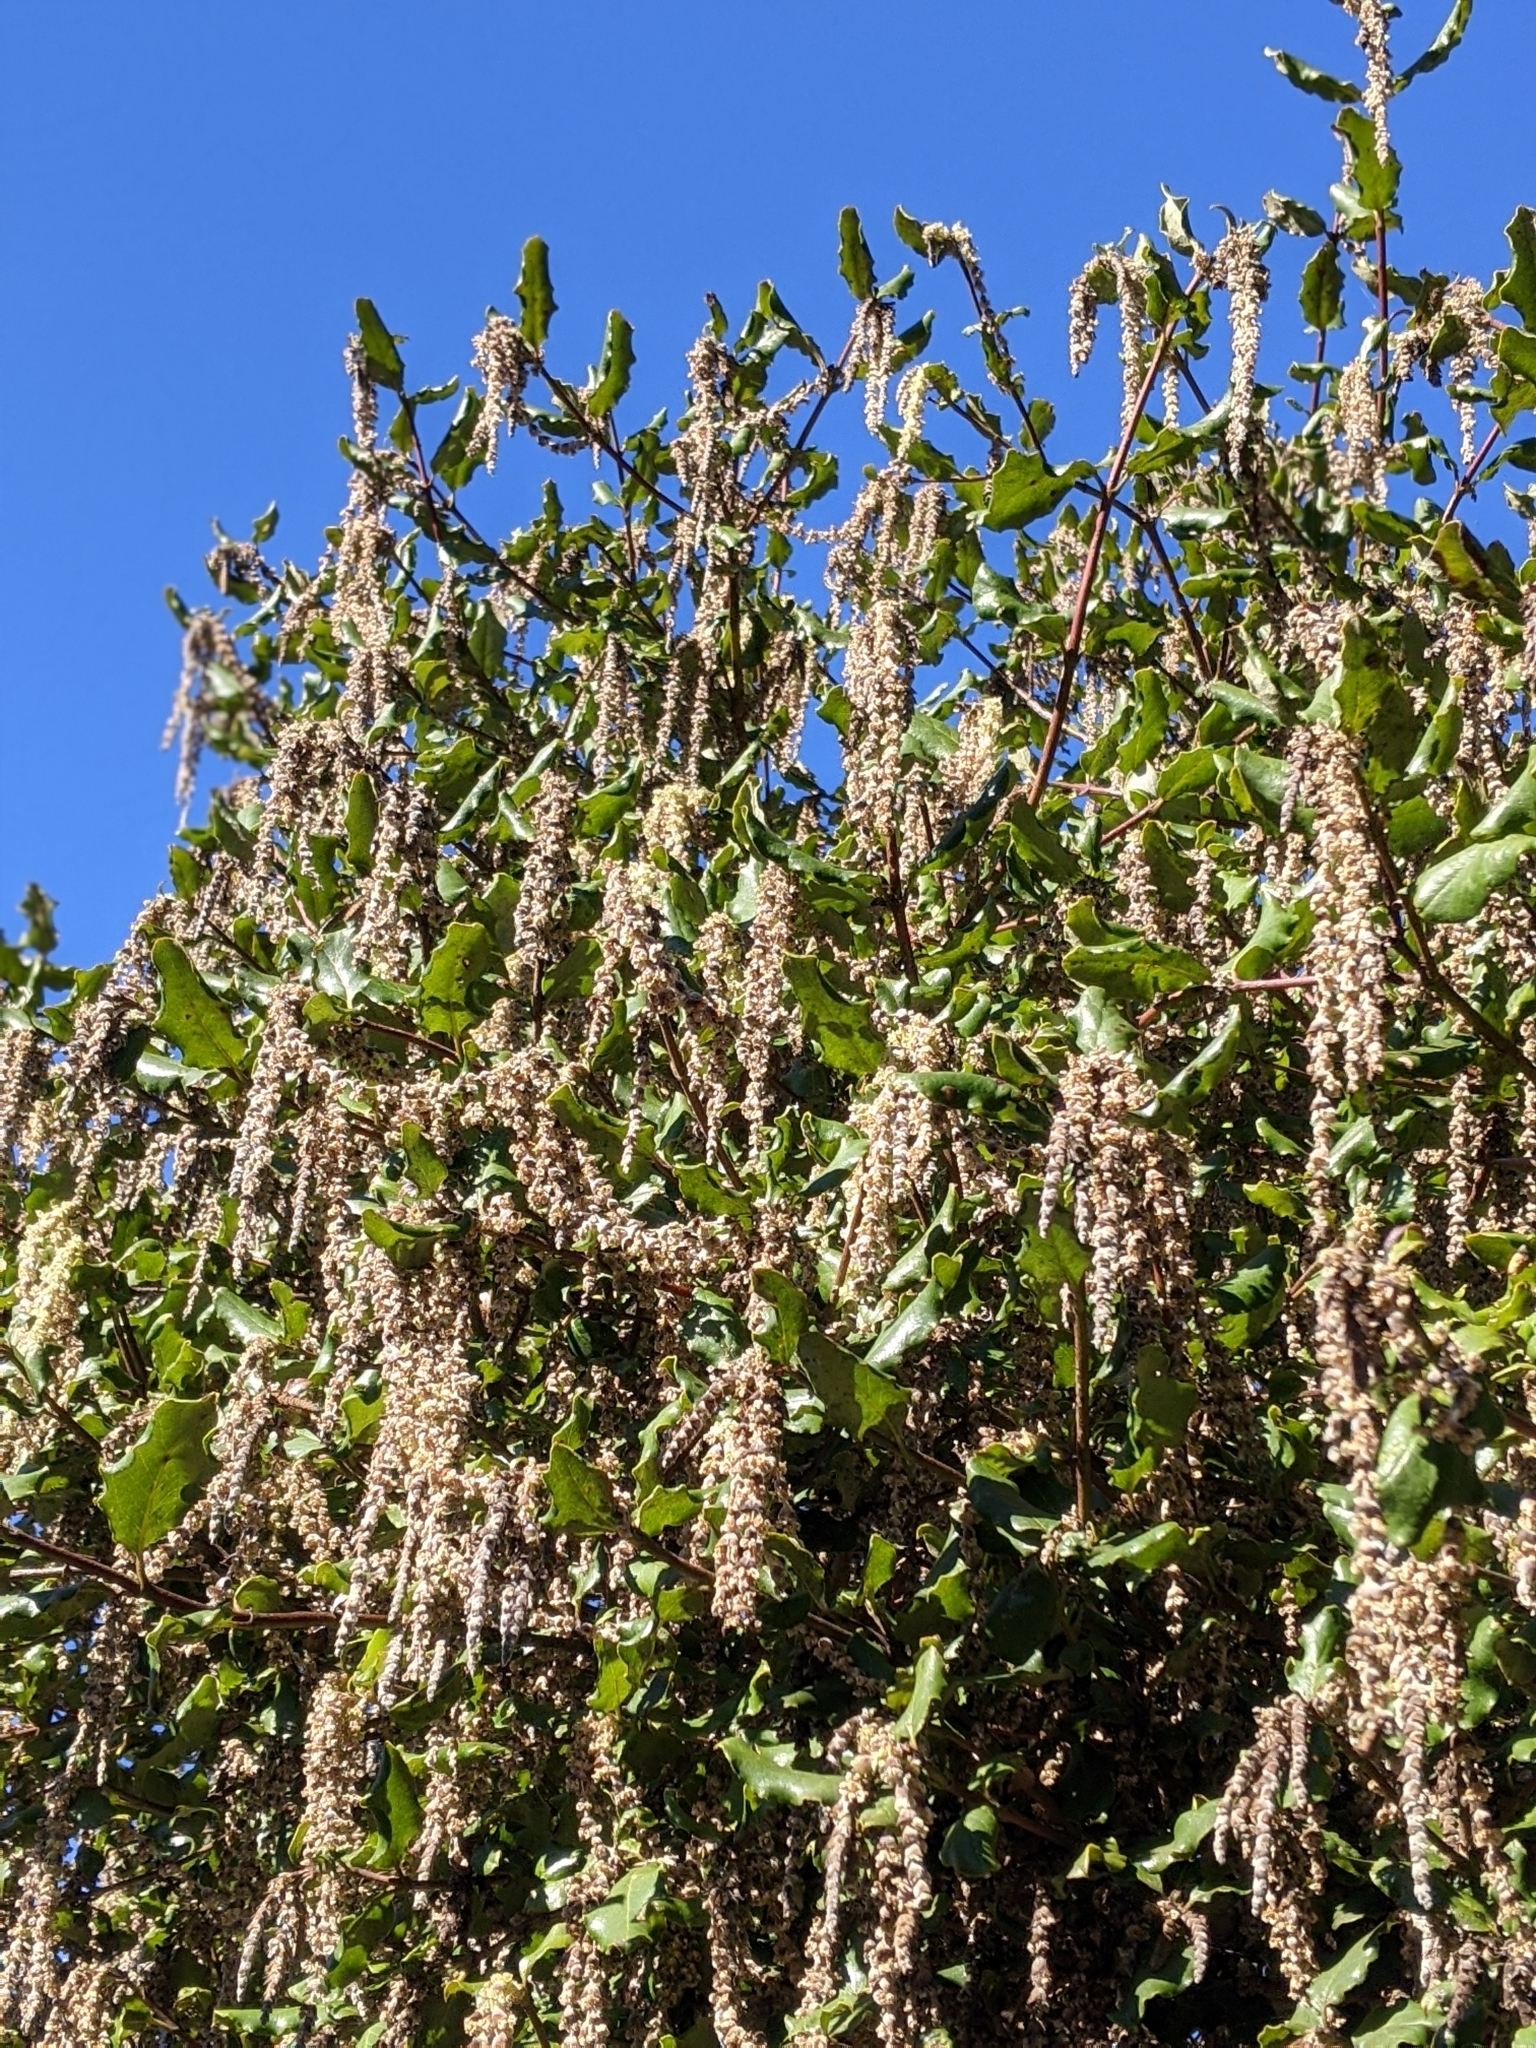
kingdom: Plantae
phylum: Tracheophyta
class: Magnoliopsida
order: Garryales
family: Garryaceae
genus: Garrya
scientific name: Garrya elliptica
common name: Silk-tassel
